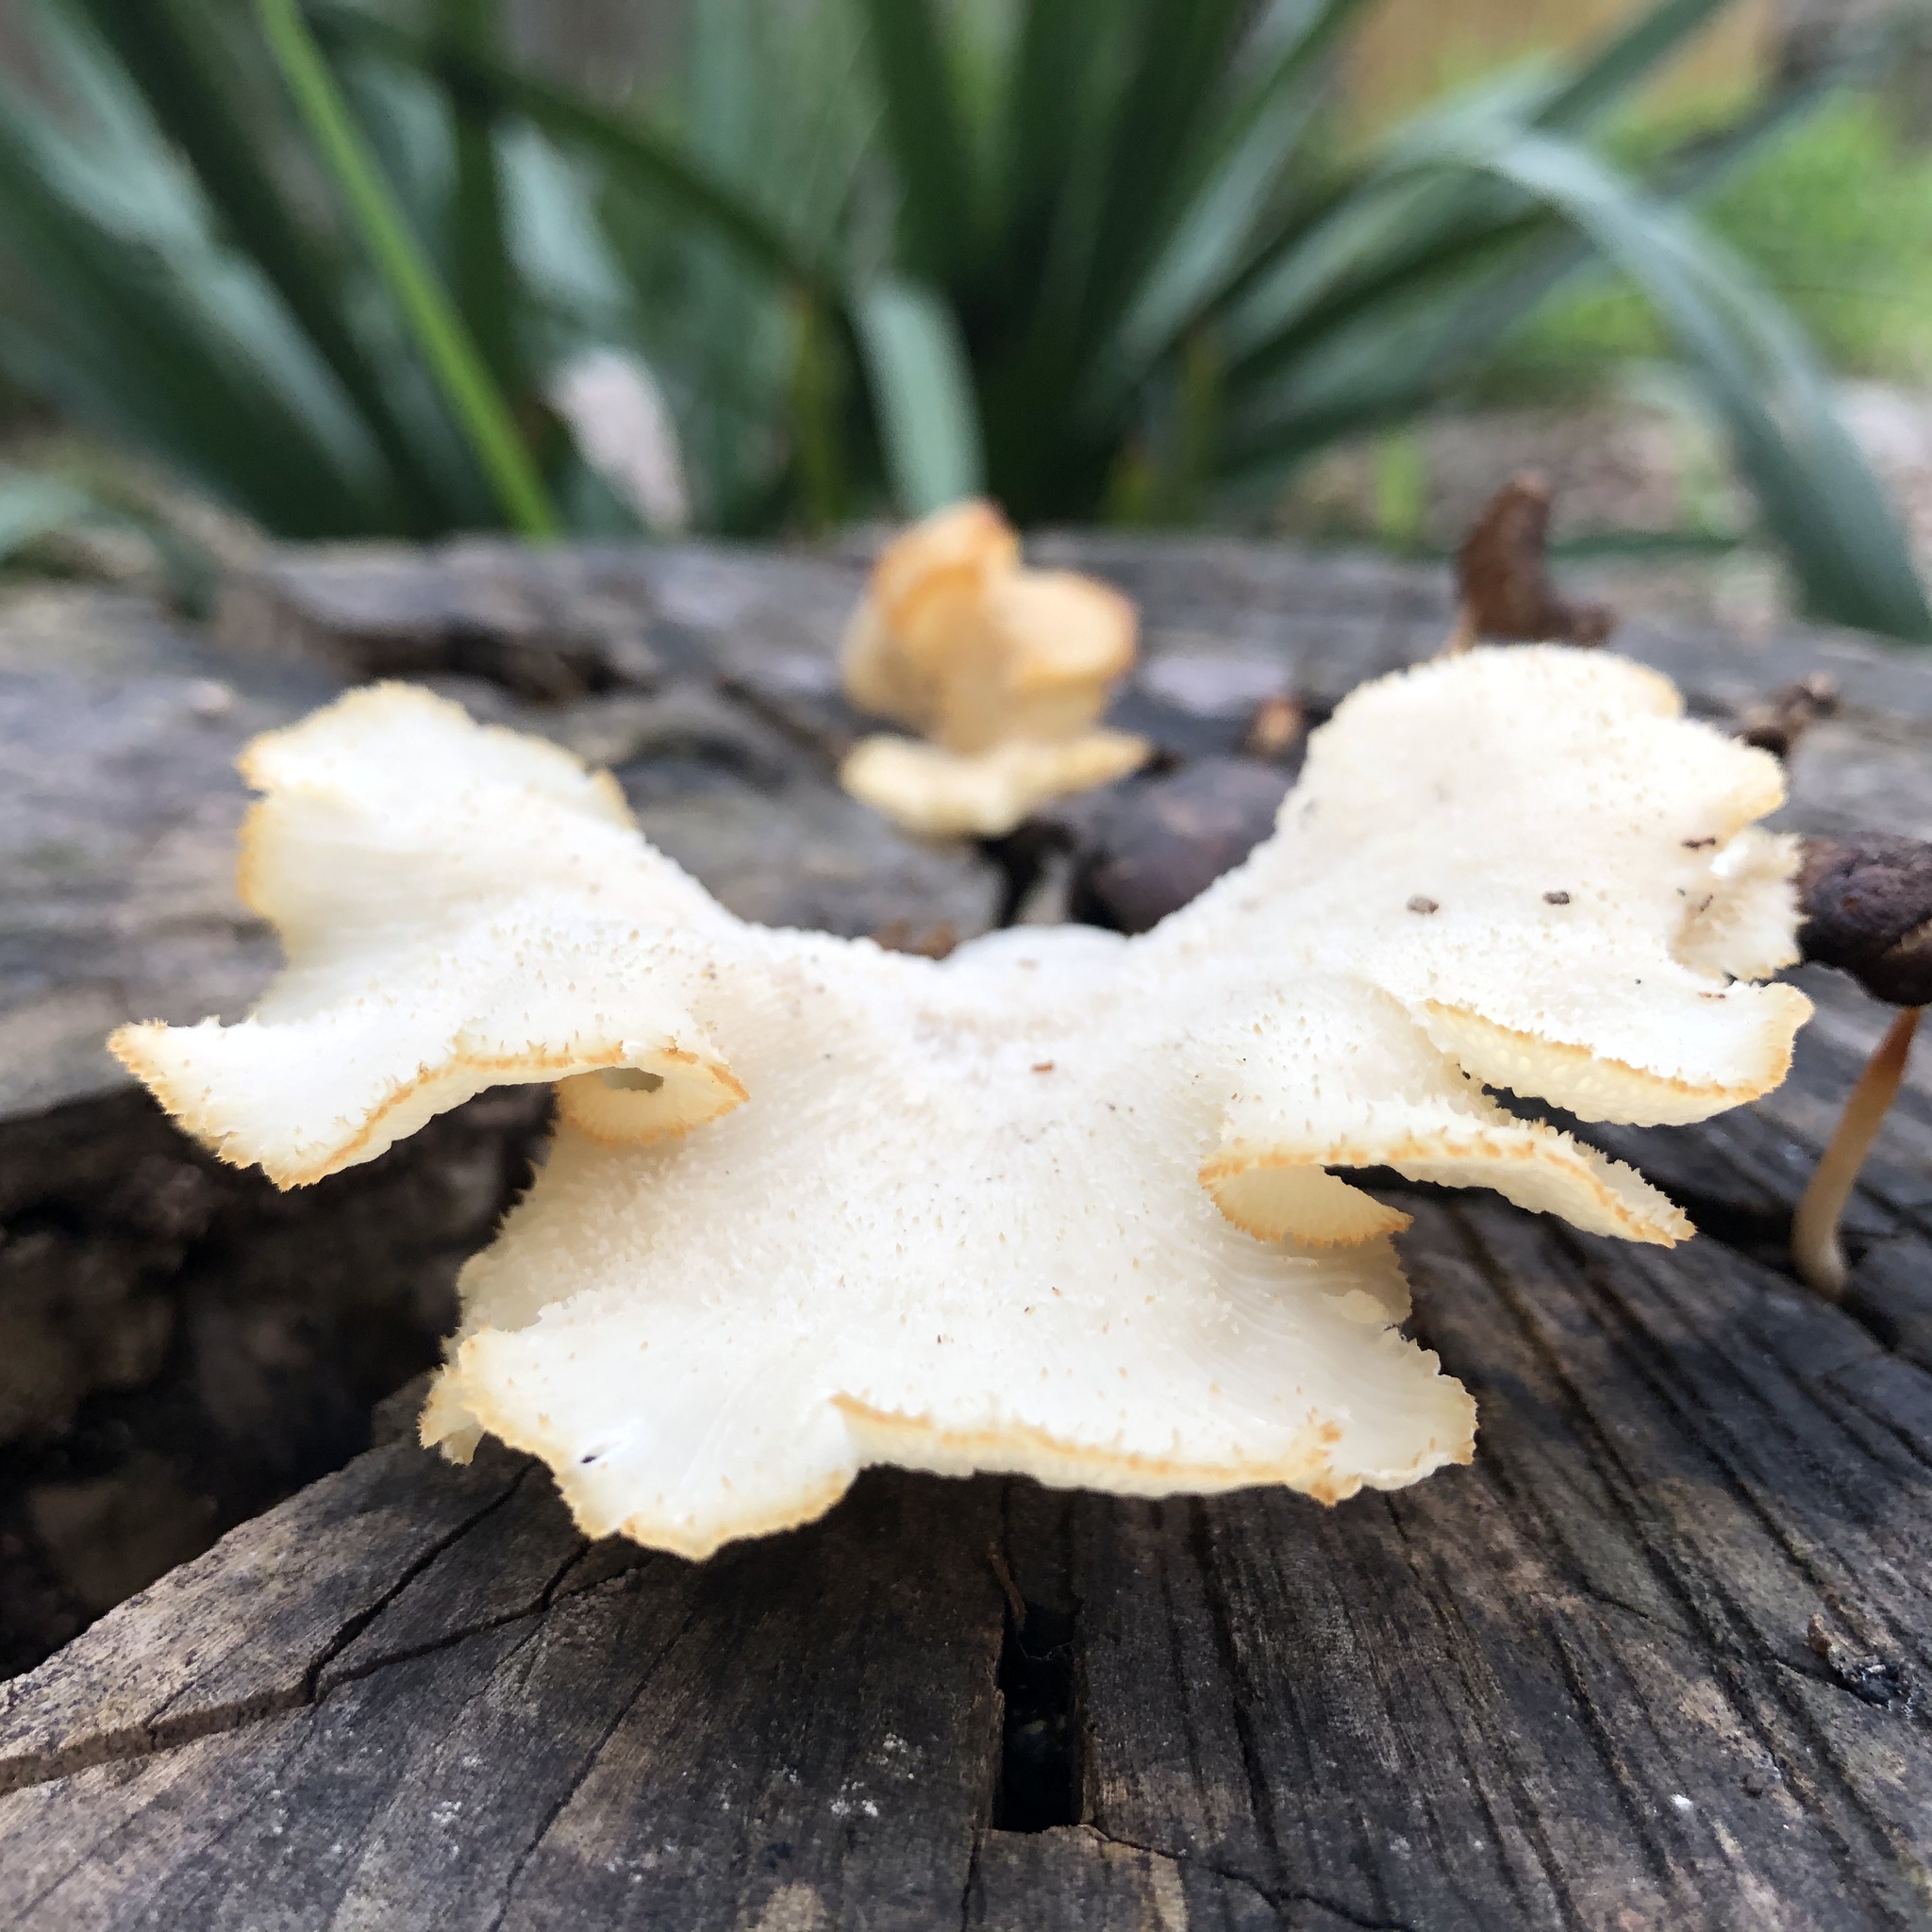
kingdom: Fungi
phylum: Basidiomycota
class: Agaricomycetes
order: Polyporales
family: Polyporaceae
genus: Favolus
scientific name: Favolus tenuiculus
